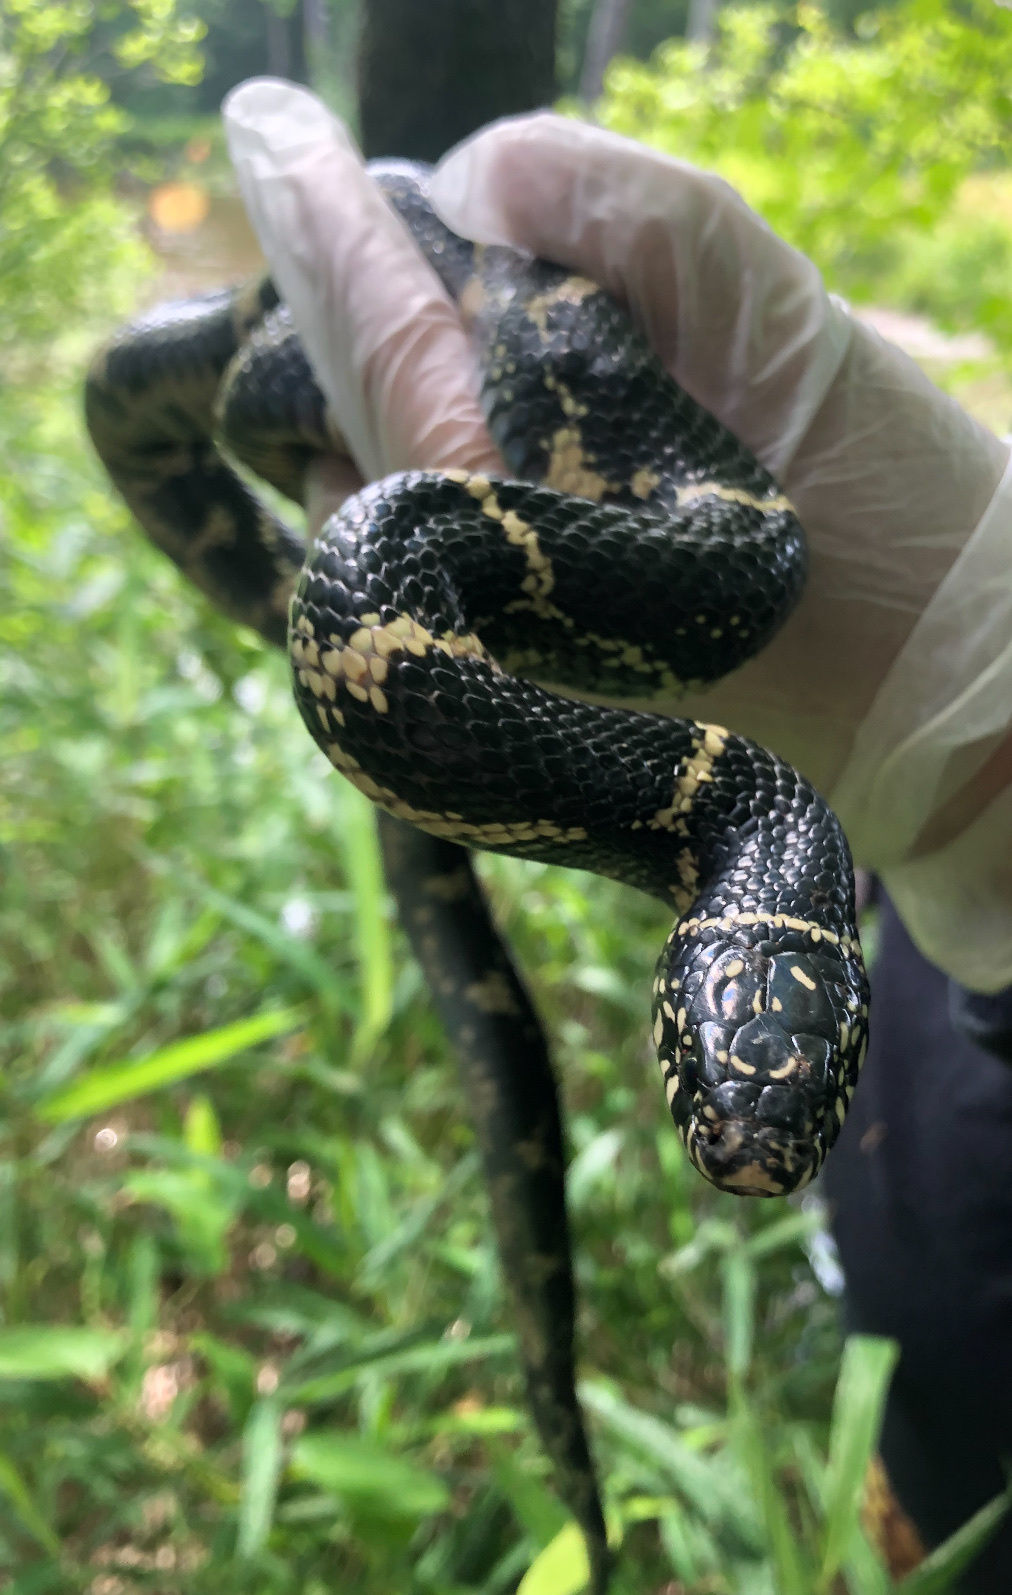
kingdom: Animalia
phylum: Chordata
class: Squamata
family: Colubridae
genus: Lampropeltis
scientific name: Lampropeltis getula
